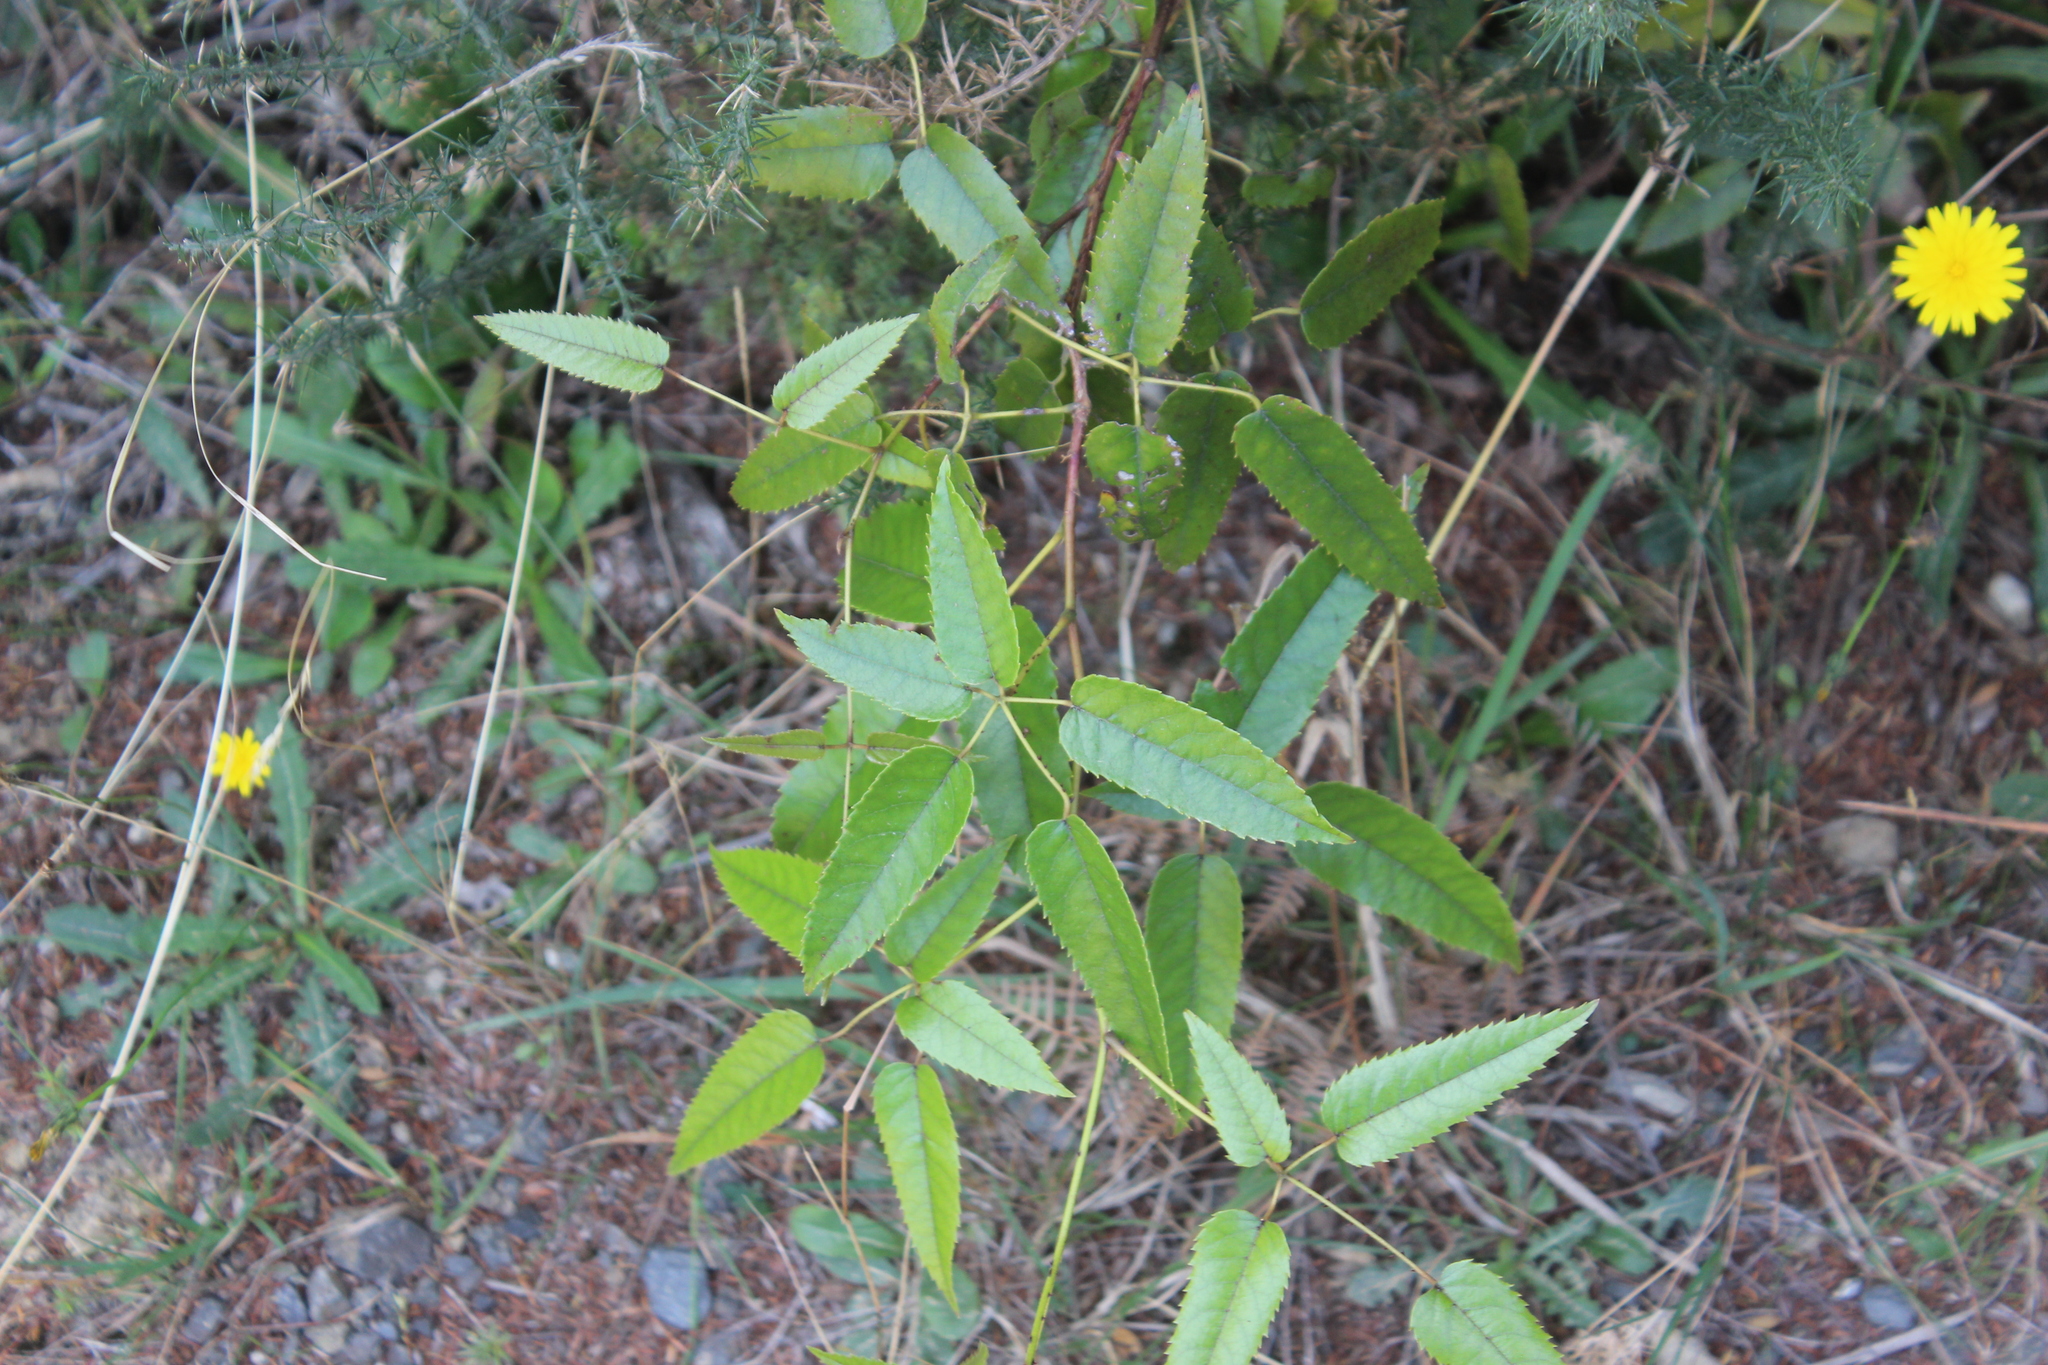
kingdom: Plantae
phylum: Tracheophyta
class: Magnoliopsida
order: Rosales
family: Rosaceae
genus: Rubus
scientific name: Rubus cissoides
